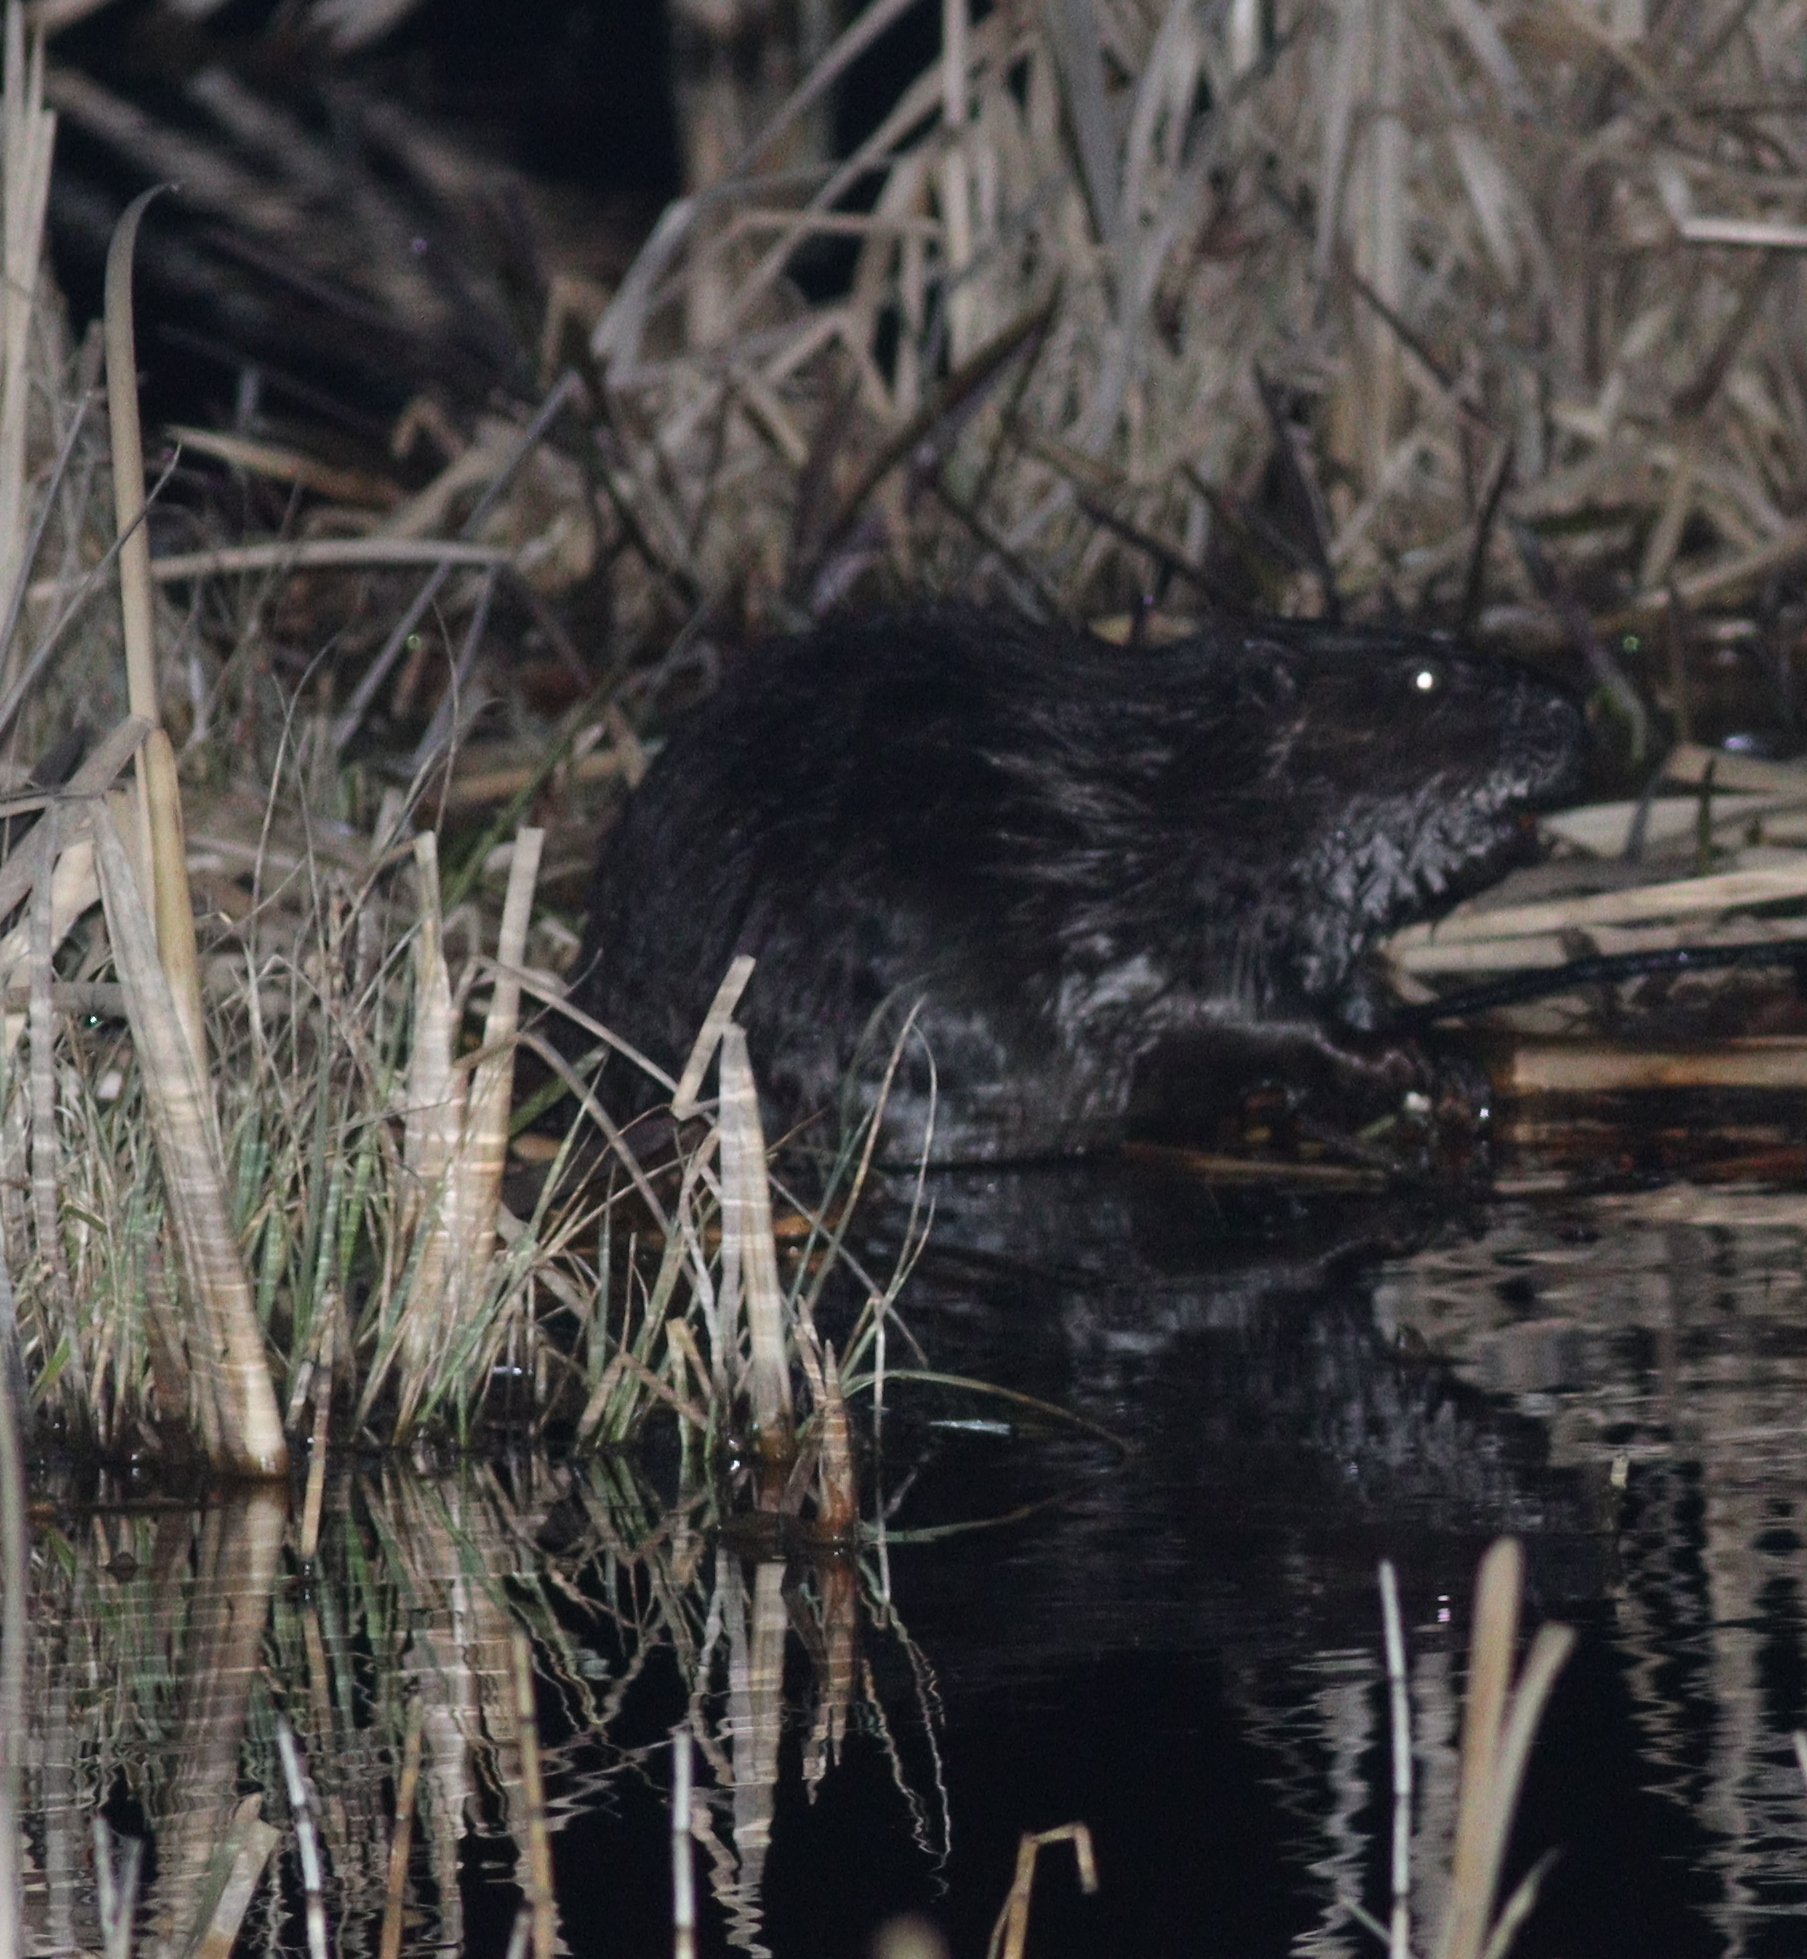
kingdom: Animalia
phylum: Chordata
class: Mammalia
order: Rodentia
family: Castoridae
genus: Castor
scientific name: Castor fiber
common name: Eurasian beaver
